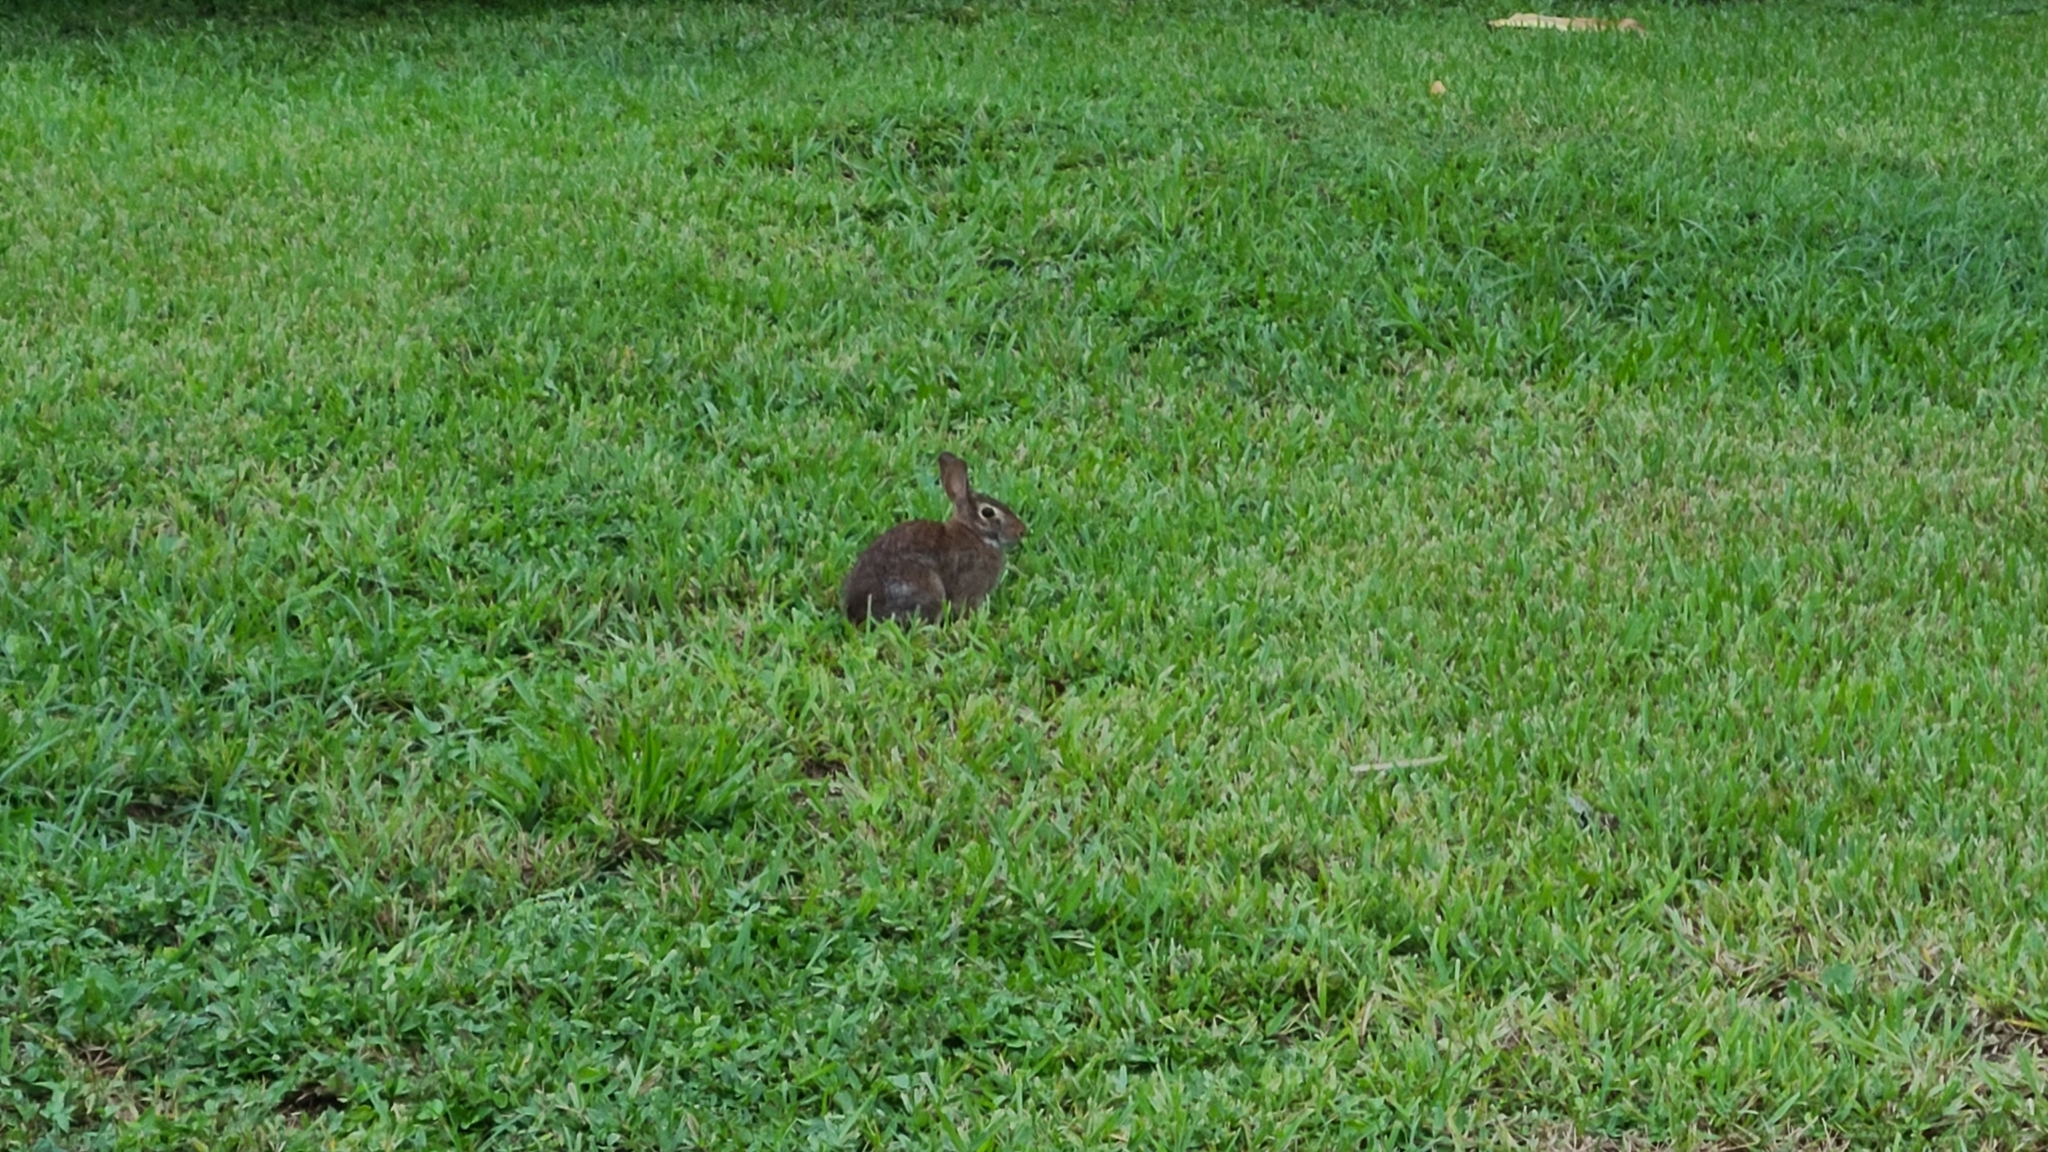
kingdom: Animalia
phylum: Chordata
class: Mammalia
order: Lagomorpha
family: Leporidae
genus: Sylvilagus
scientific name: Sylvilagus floridanus
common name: Eastern cottontail
